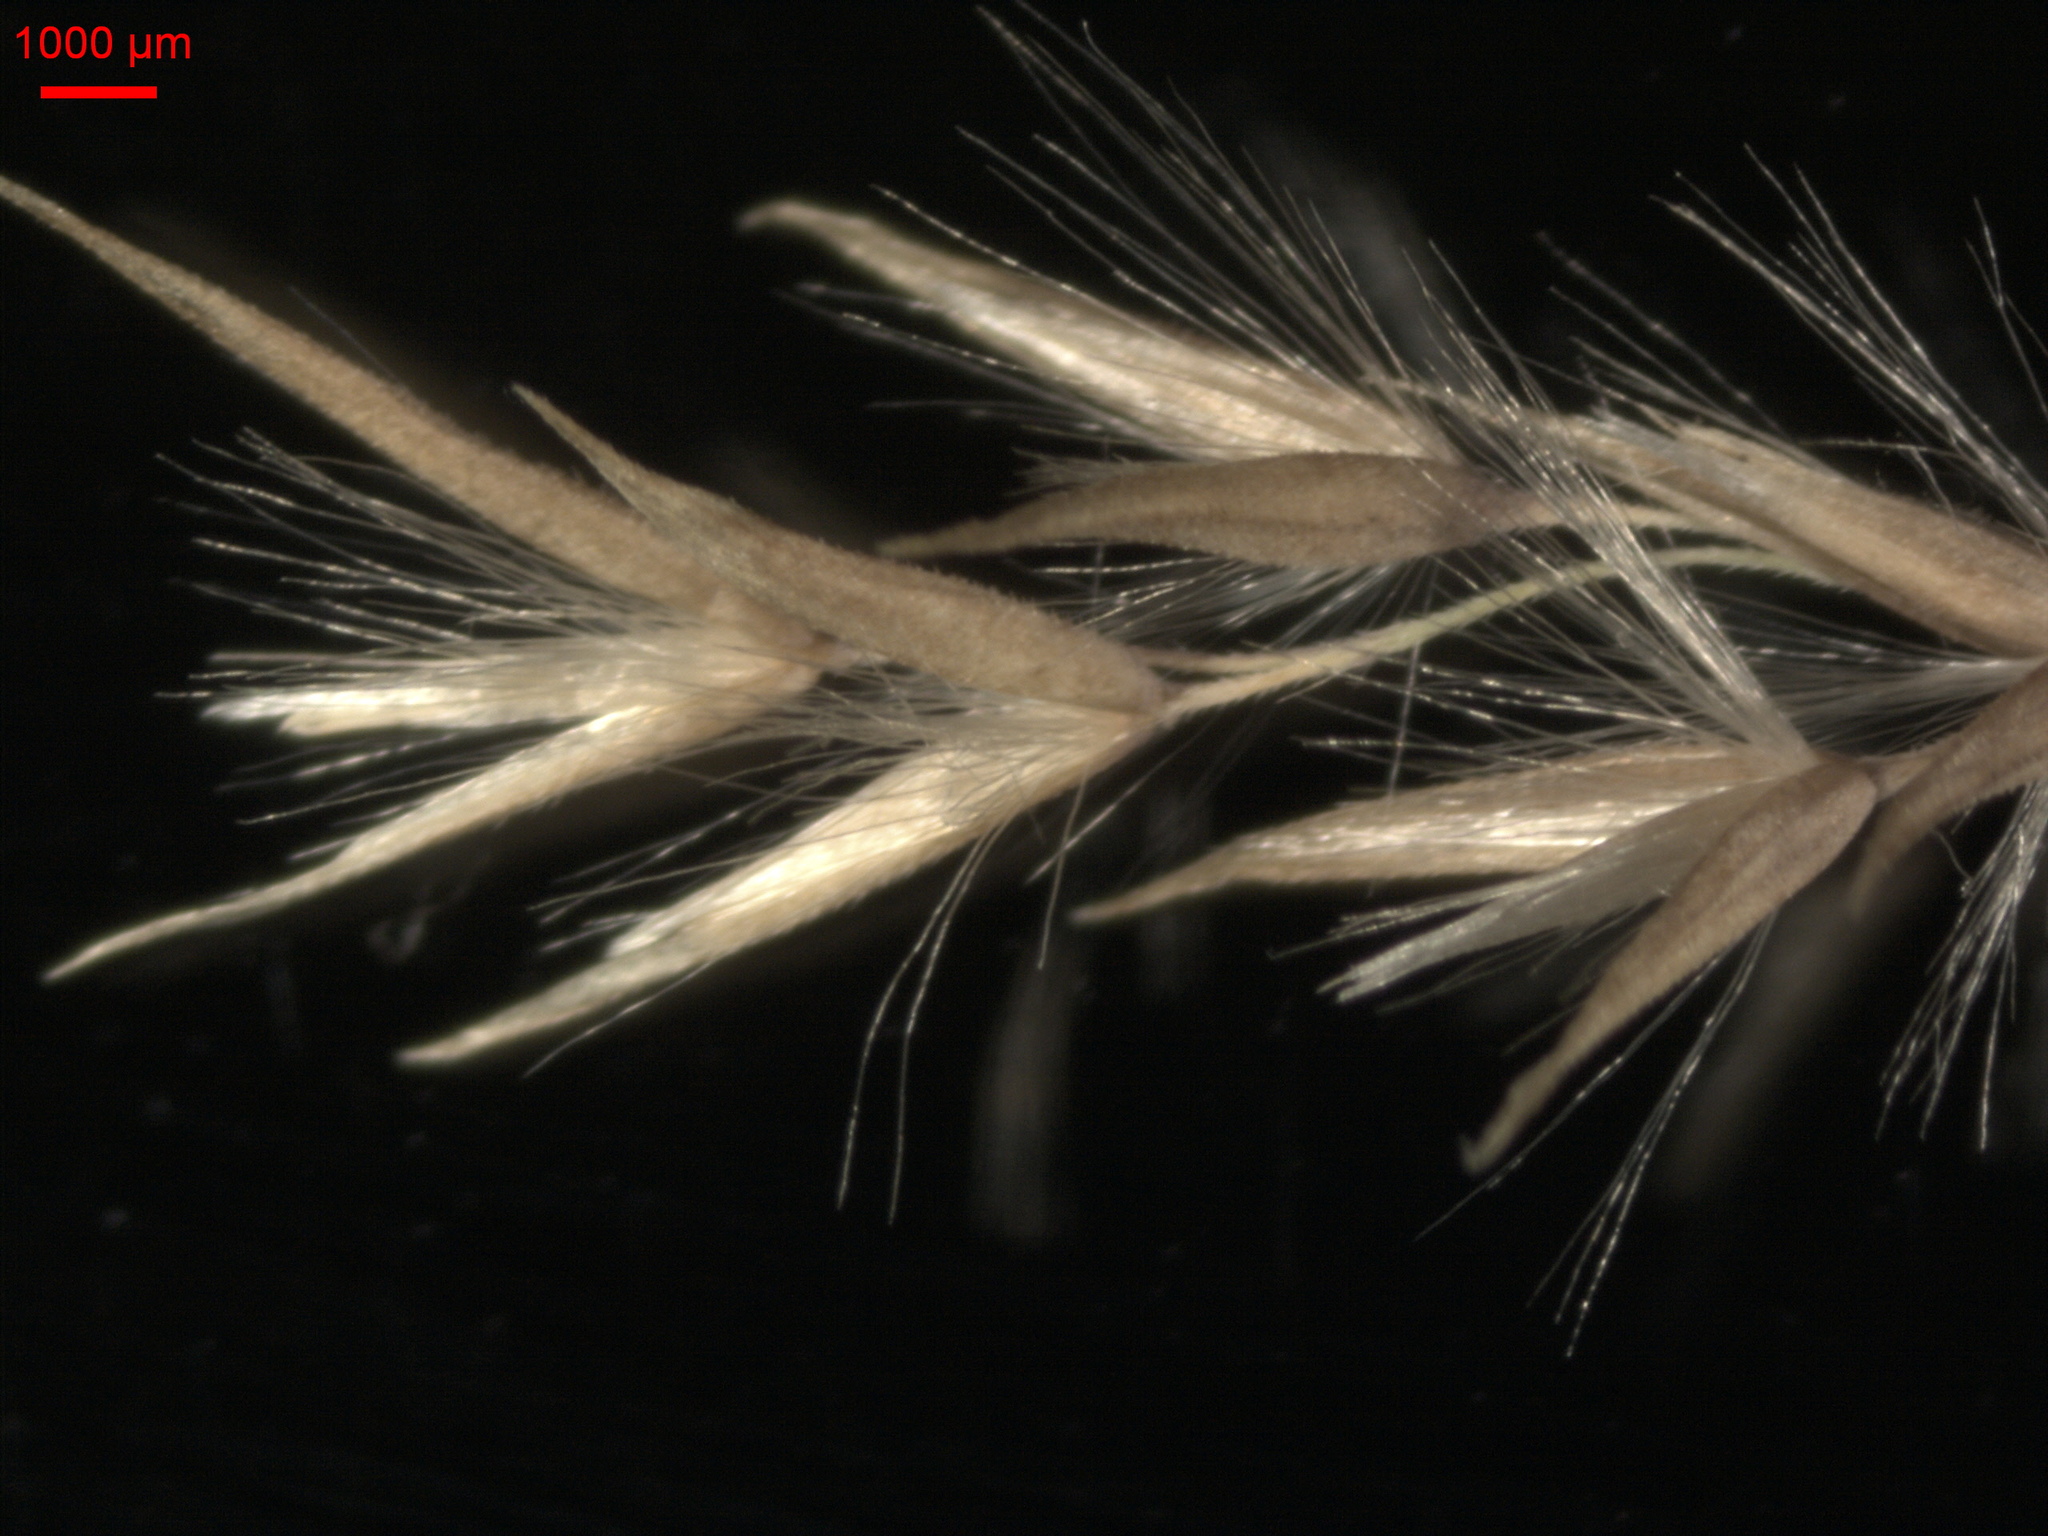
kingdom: Plantae
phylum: Tracheophyta
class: Liliopsida
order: Poales
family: Poaceae
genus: Calamagrostis
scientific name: Calamagrostis canescens
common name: Purple small-reed
